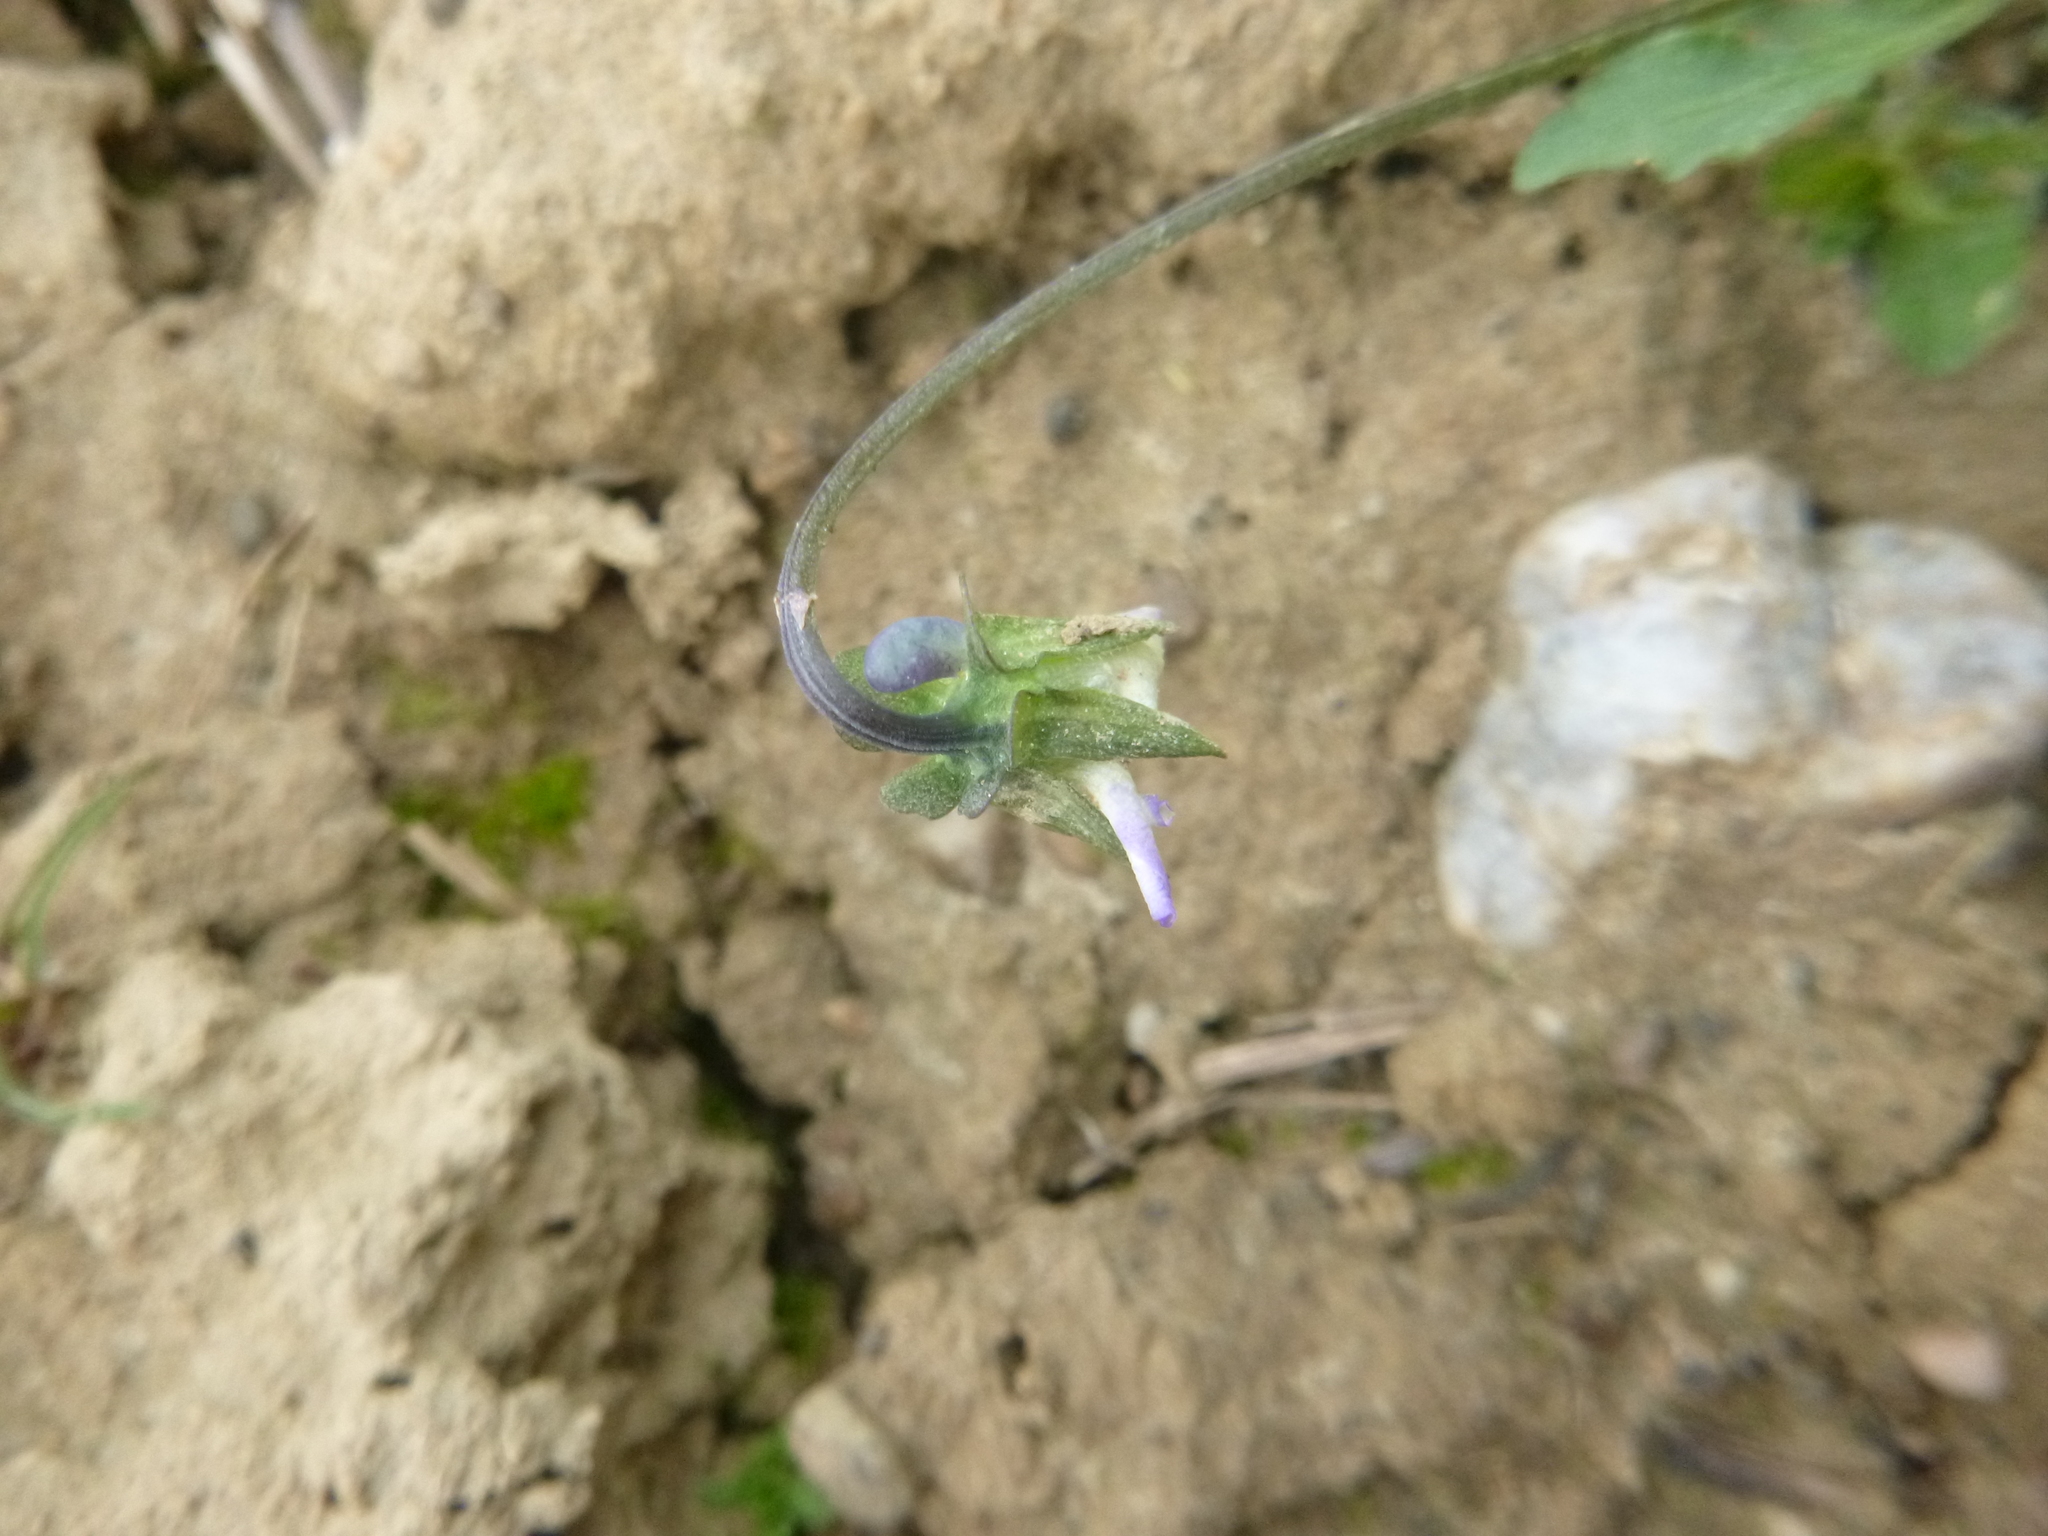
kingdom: Plantae
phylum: Tracheophyta
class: Magnoliopsida
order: Malpighiales
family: Violaceae
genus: Viola
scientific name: Viola arvensis
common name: Field pansy
